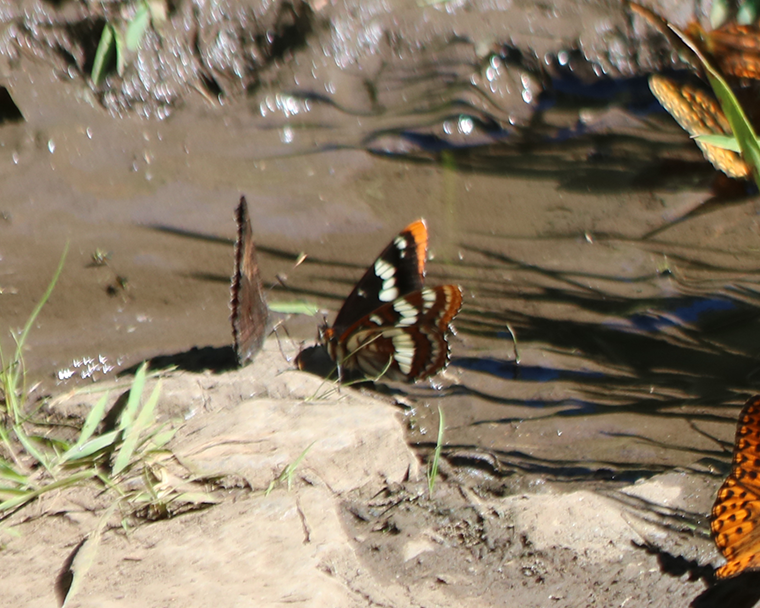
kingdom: Animalia
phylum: Arthropoda
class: Insecta
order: Lepidoptera
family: Nymphalidae
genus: Limenitis
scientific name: Limenitis lorquini
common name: Lorquin's admiral
